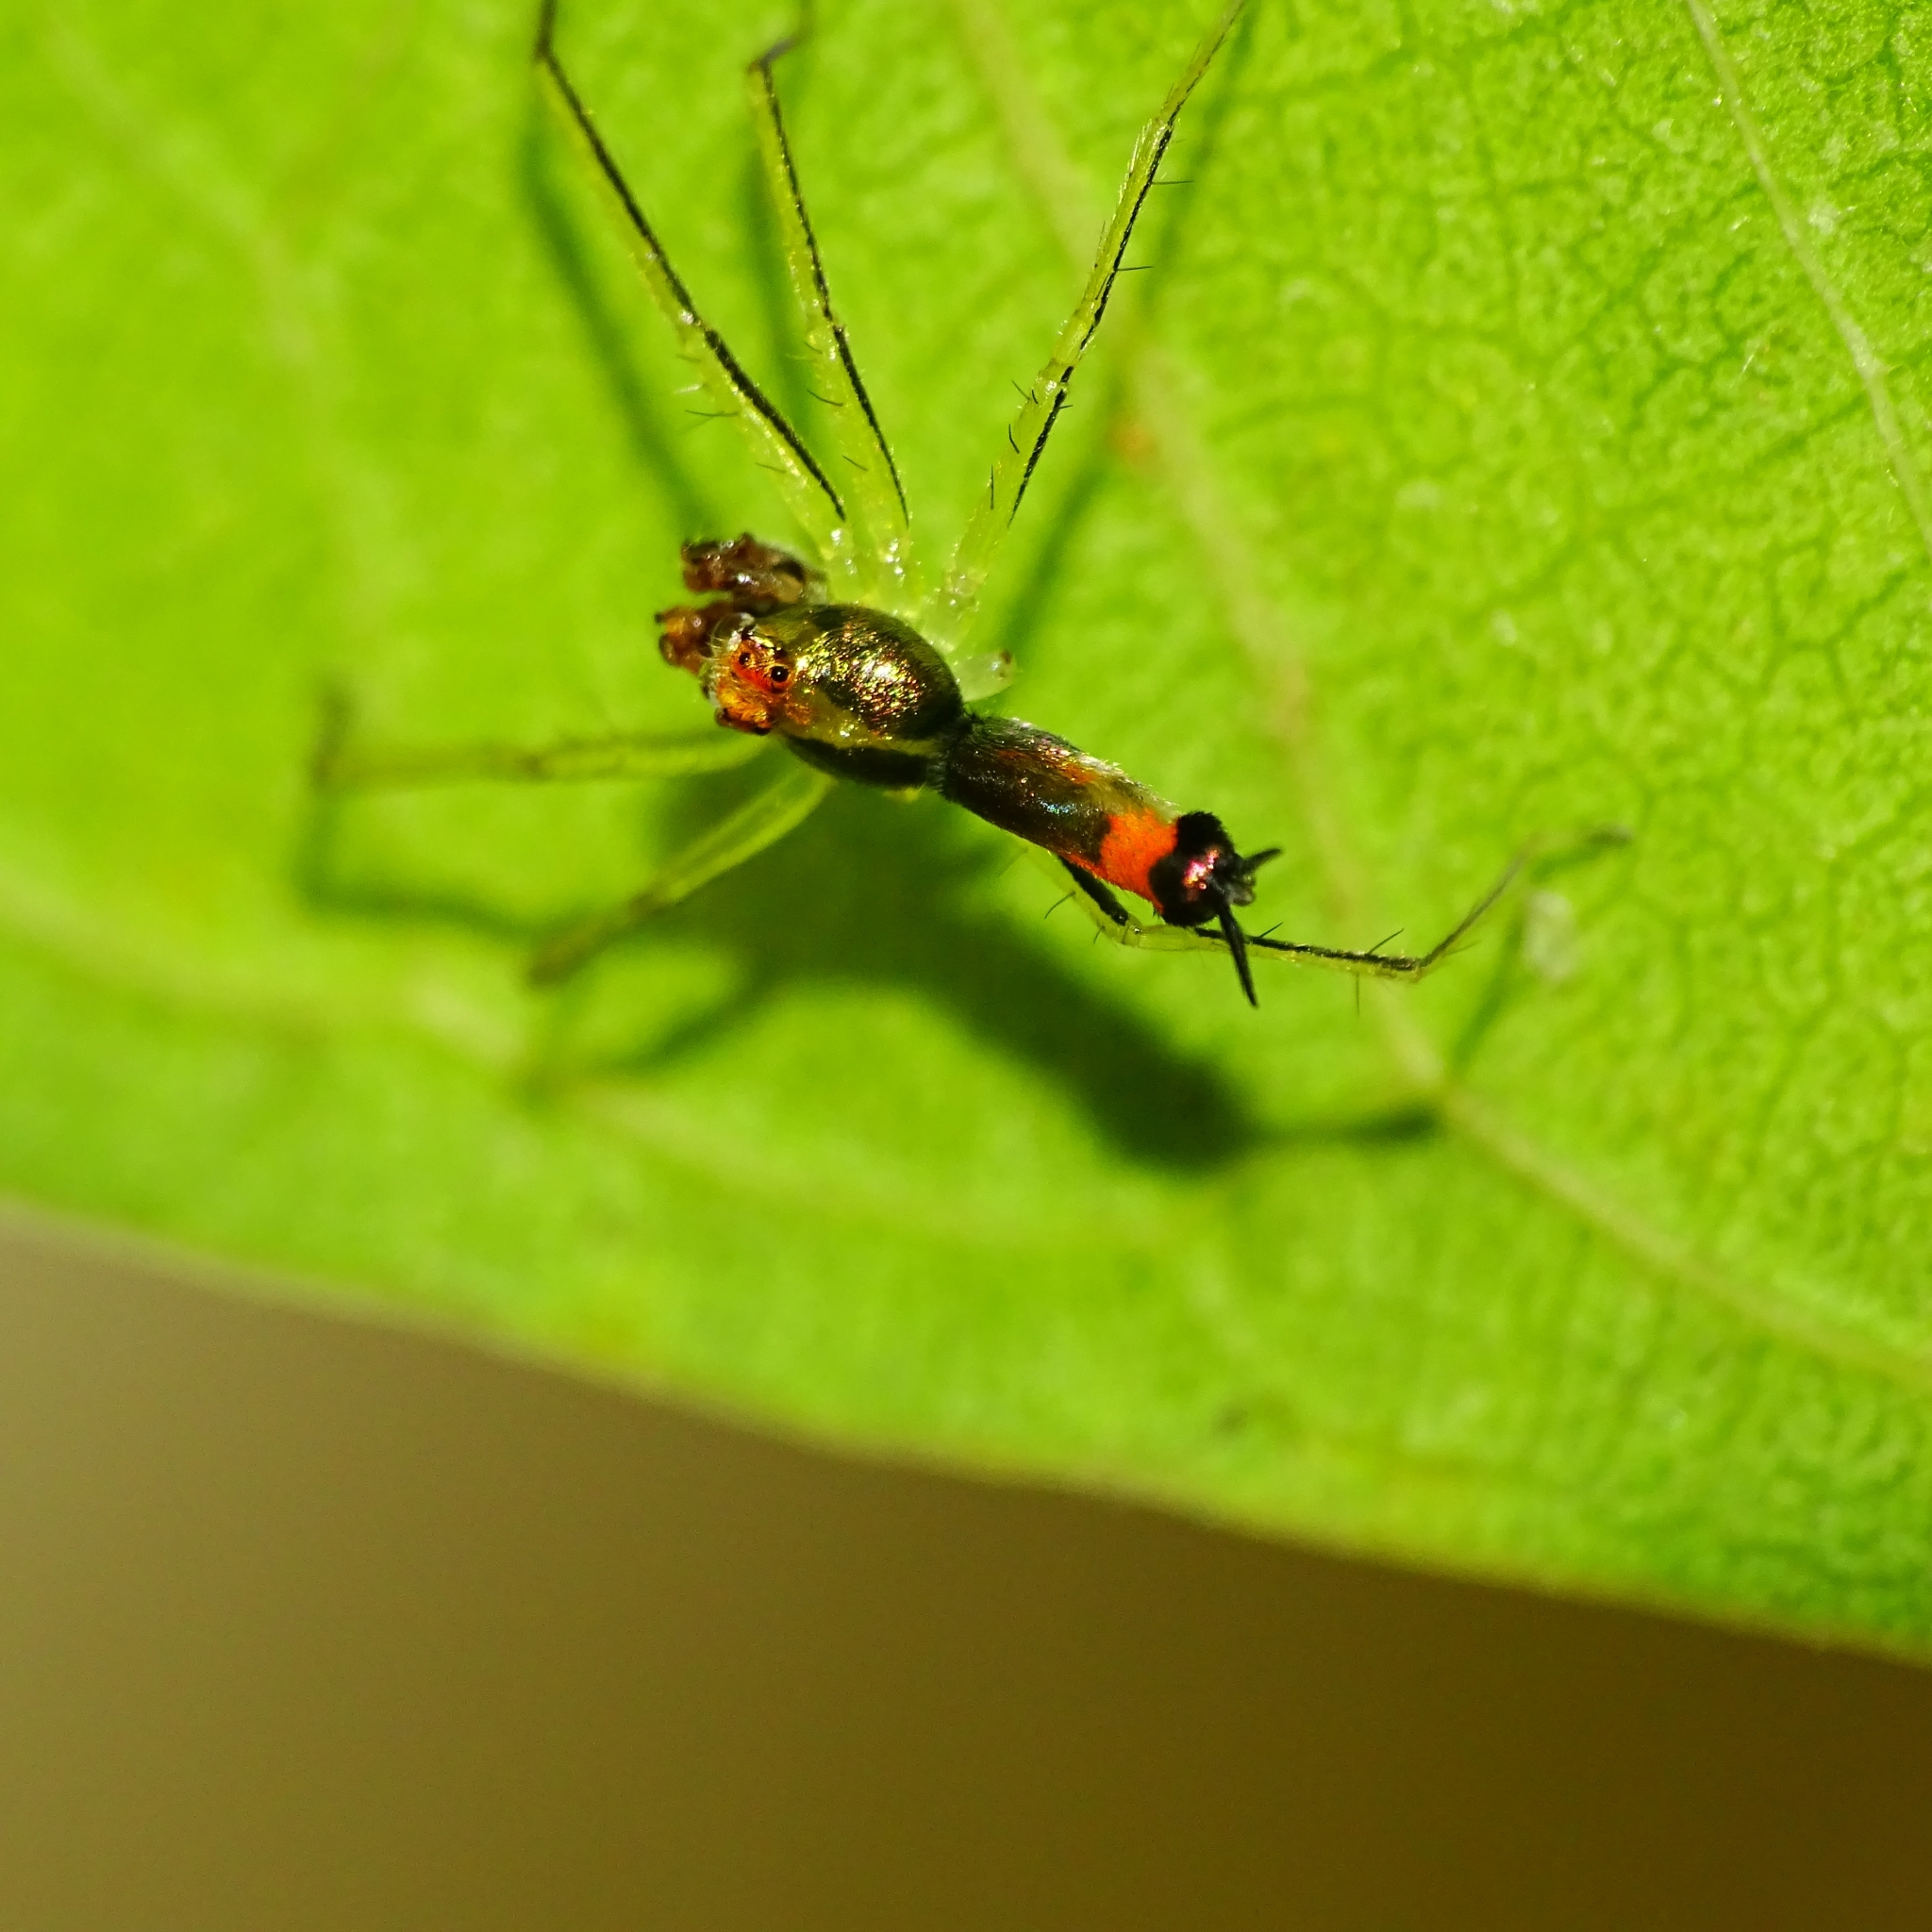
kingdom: Animalia
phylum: Arthropoda
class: Arachnida
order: Araneae
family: Salticidae
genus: Asemonea
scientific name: Asemonea tenuipes
